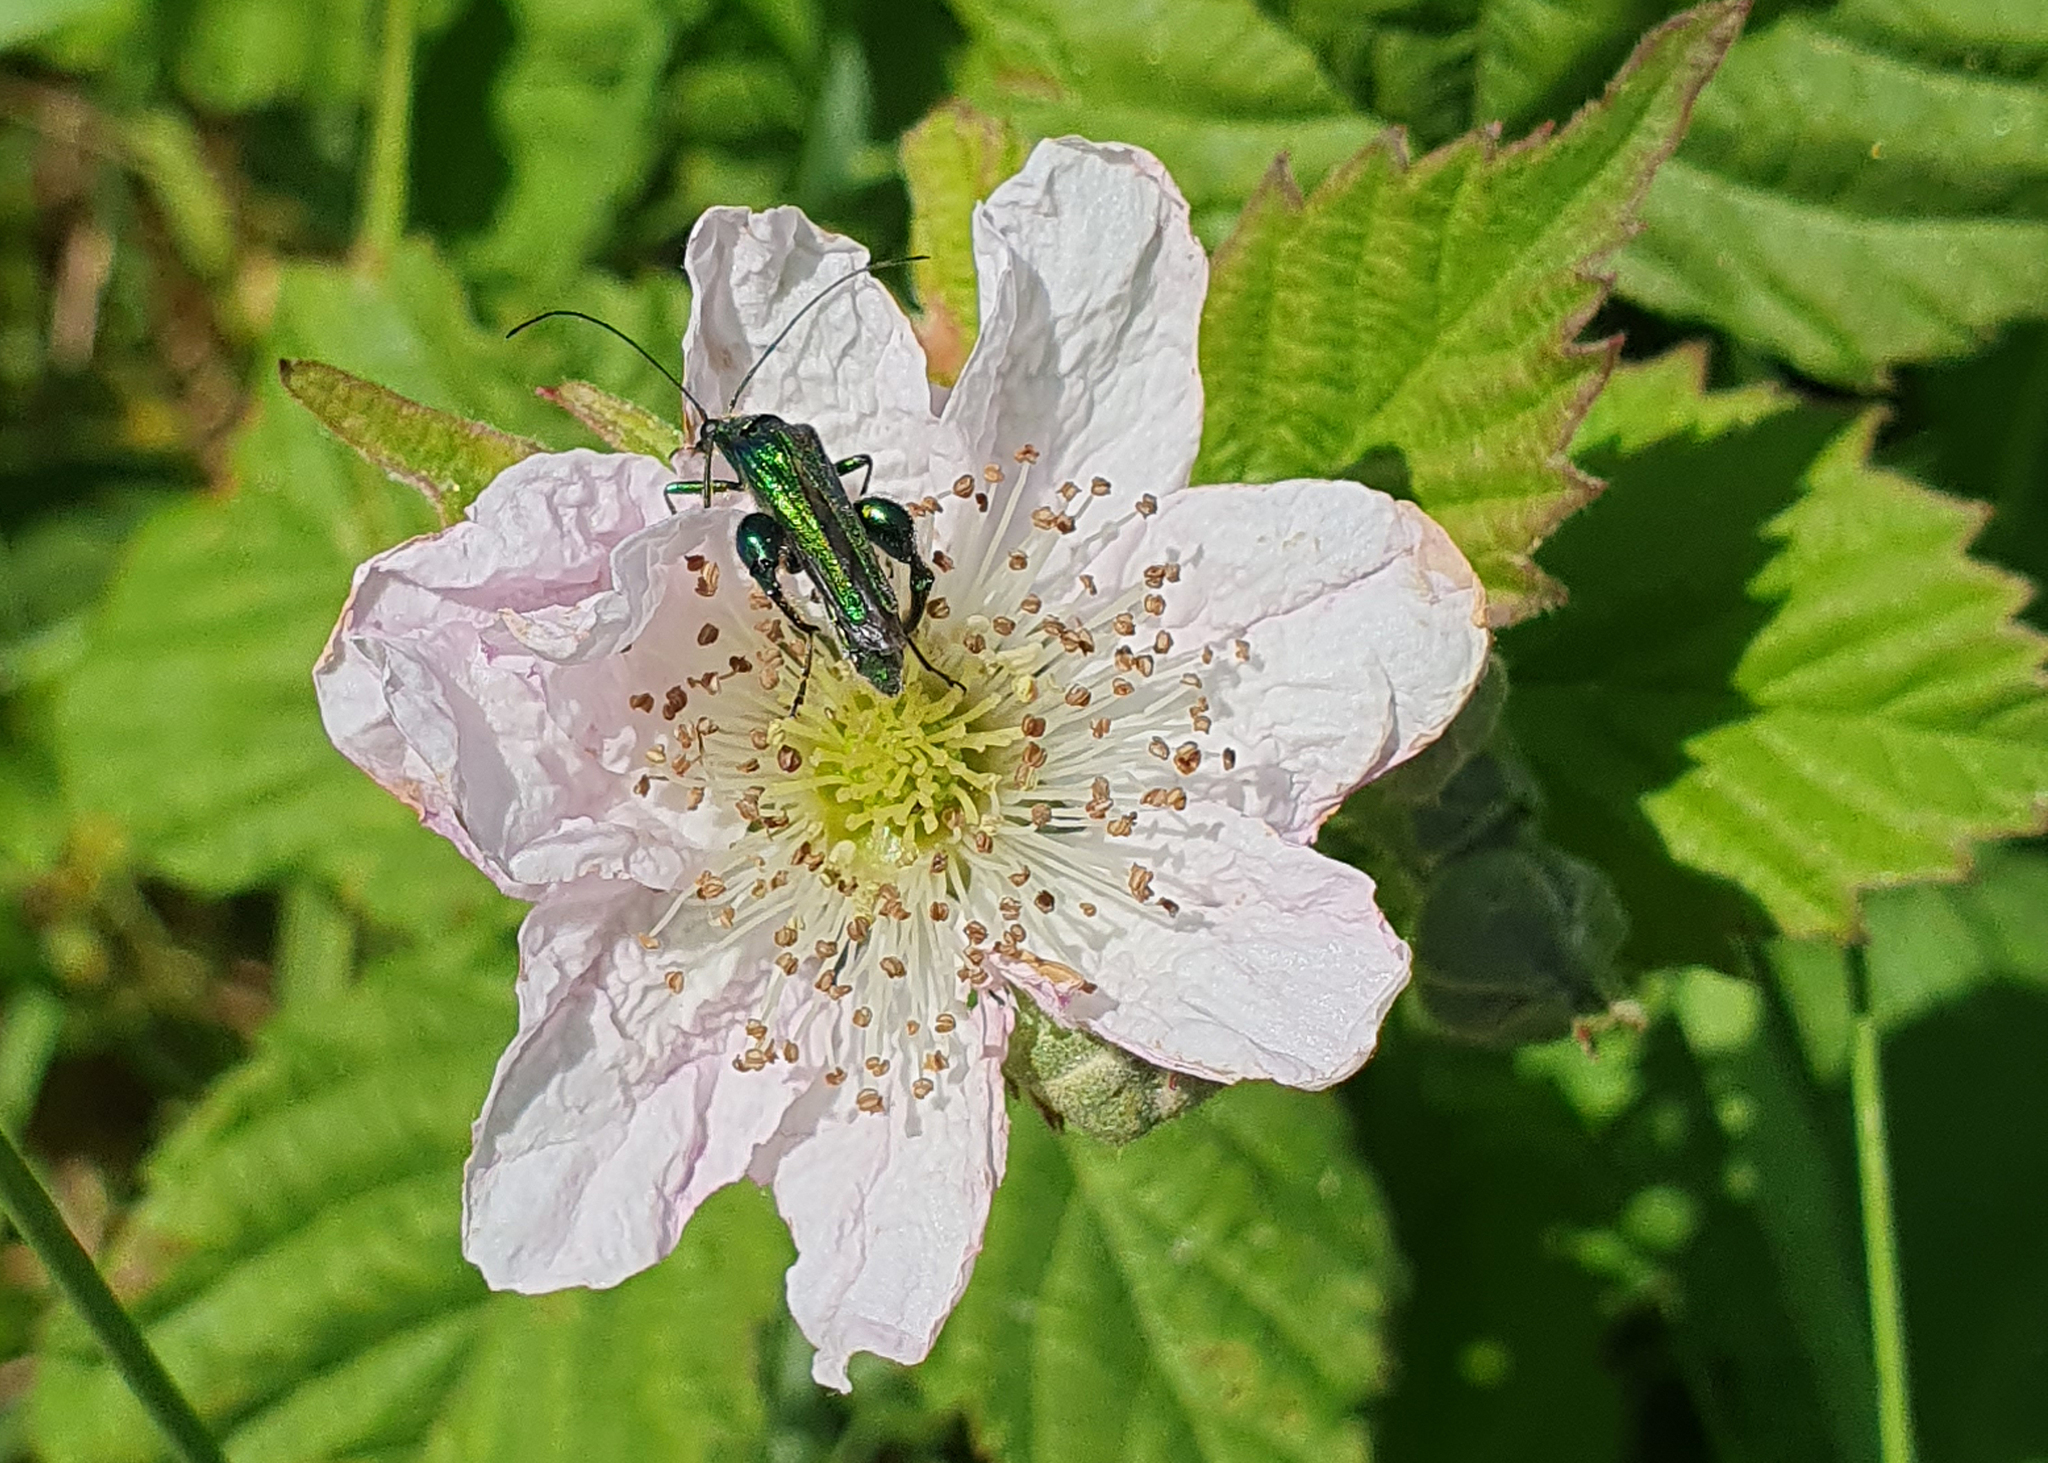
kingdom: Animalia
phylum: Arthropoda
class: Insecta
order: Coleoptera
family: Oedemeridae
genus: Oedemera
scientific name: Oedemera nobilis
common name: Swollen-thighed beetle
